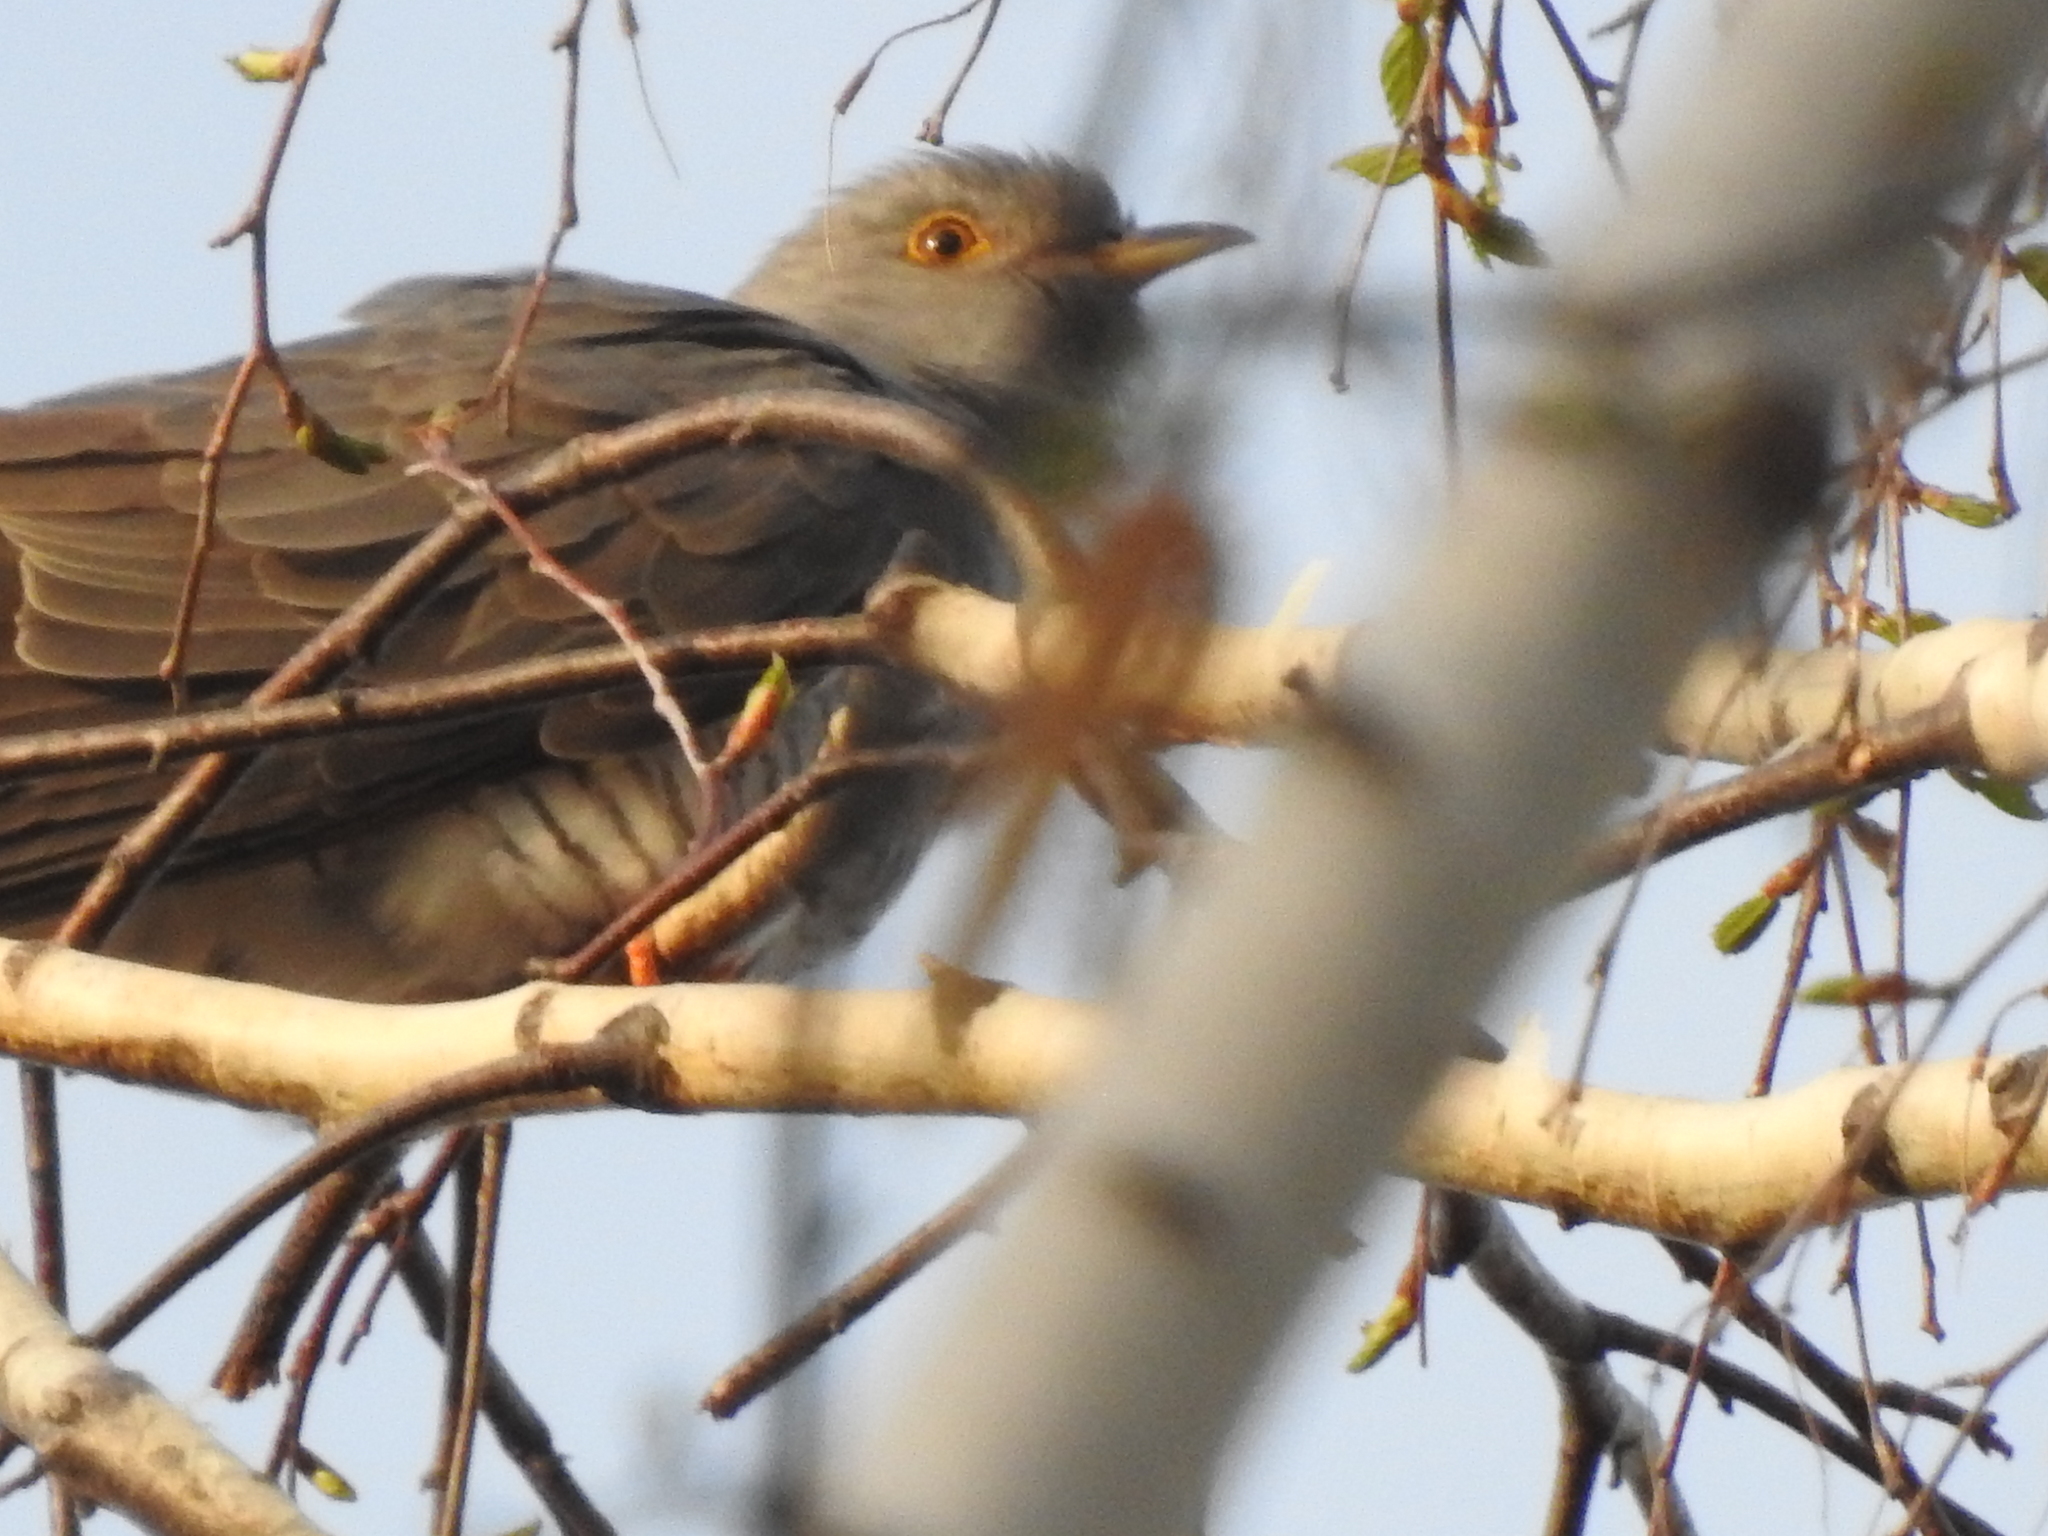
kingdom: Animalia
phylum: Chordata
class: Aves
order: Cuculiformes
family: Cuculidae
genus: Cuculus
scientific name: Cuculus canorus
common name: Common cuckoo
